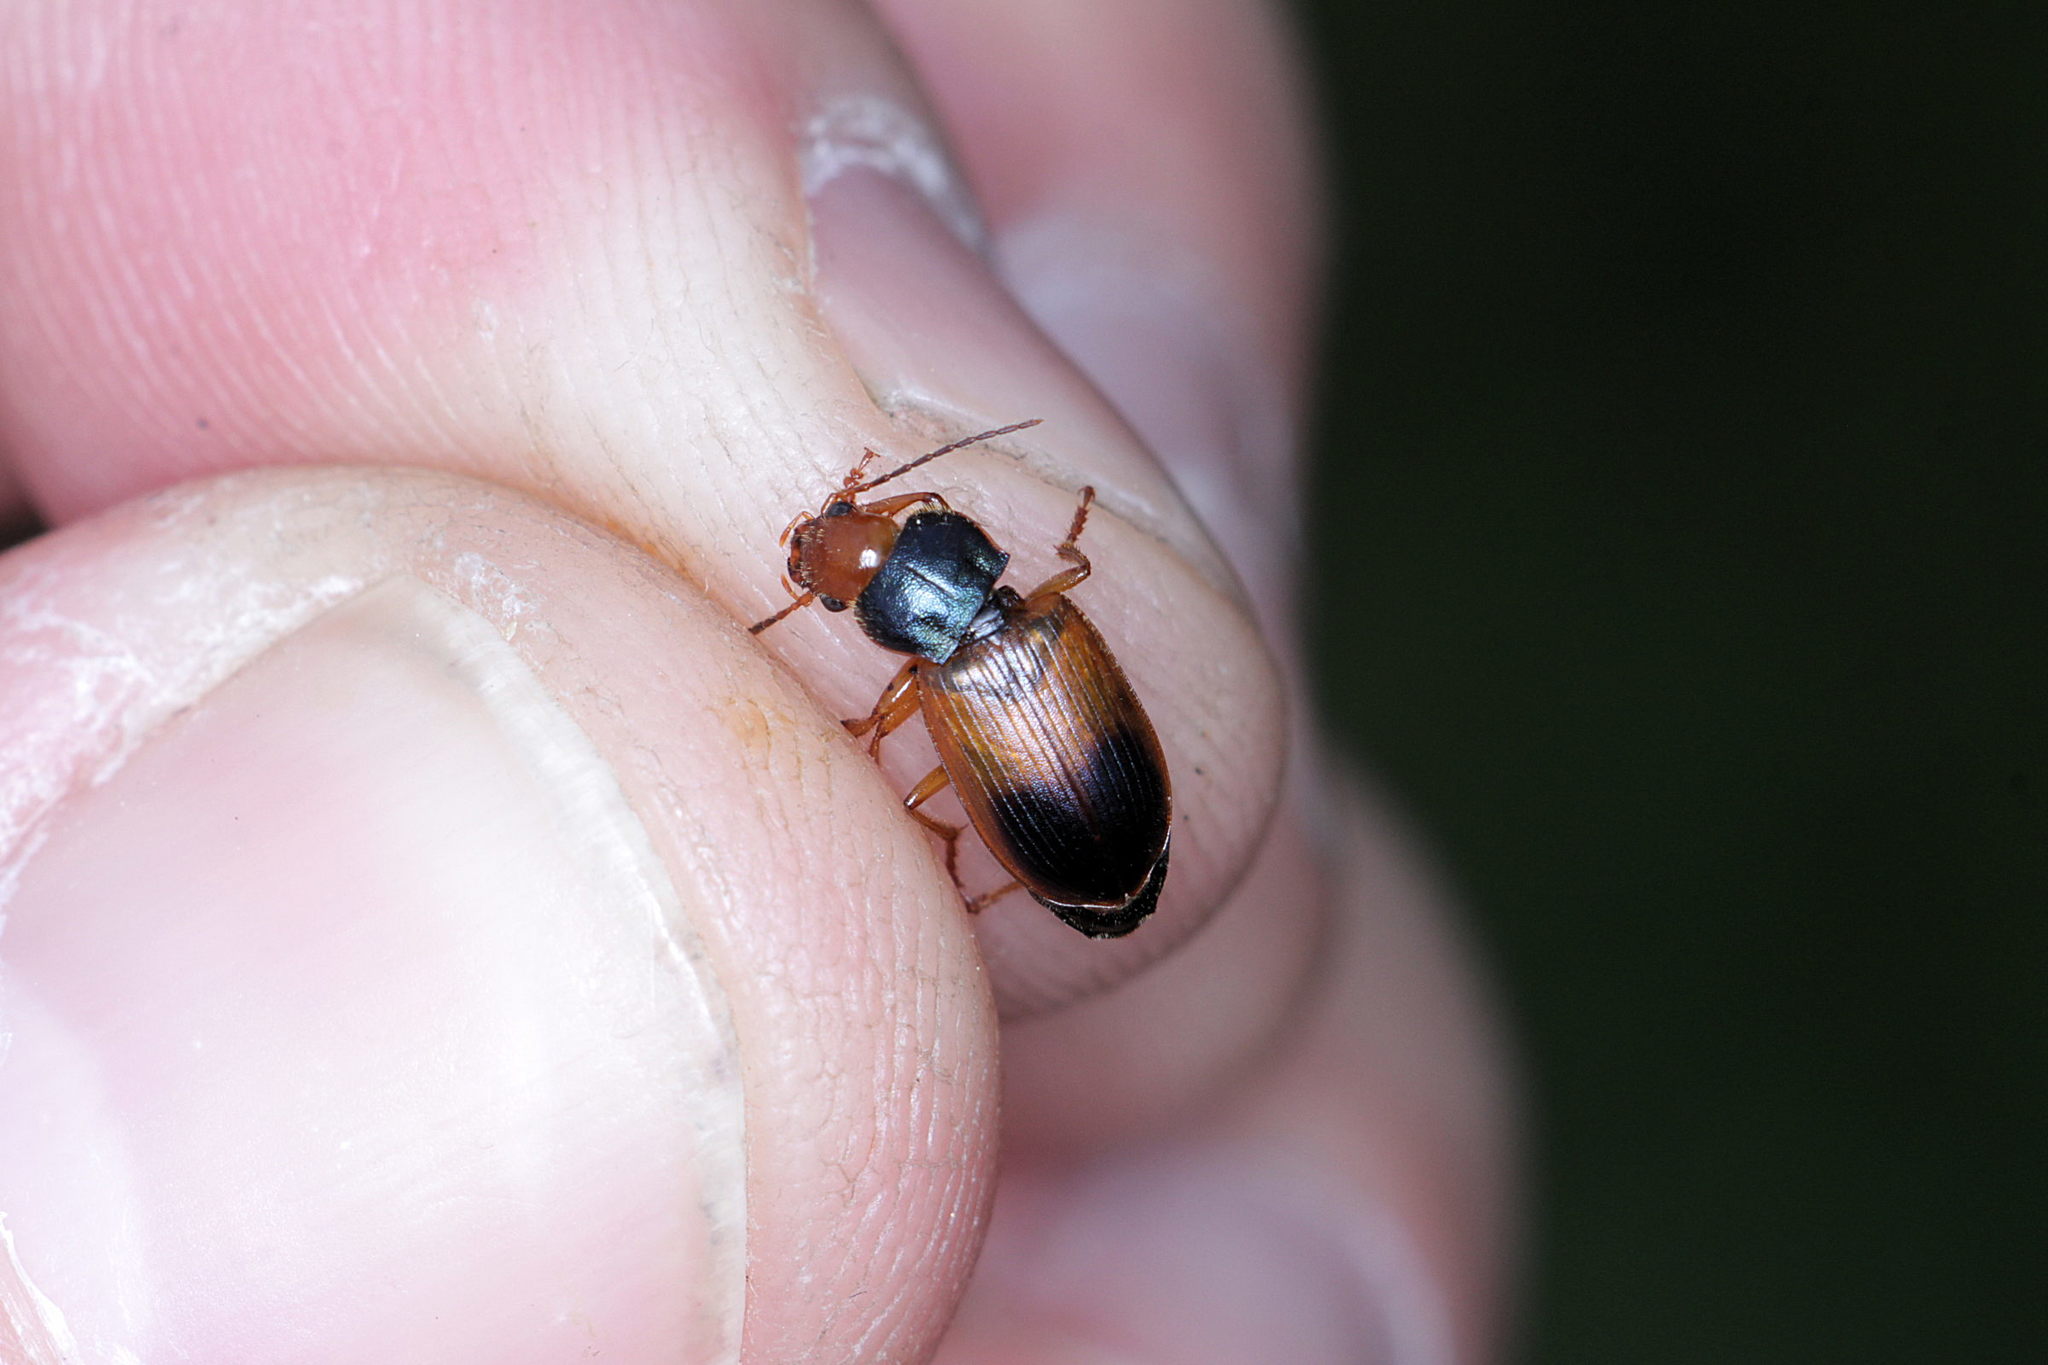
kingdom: Animalia
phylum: Arthropoda
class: Insecta
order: Coleoptera
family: Carabidae
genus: Diachromus
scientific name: Diachromus germanus
